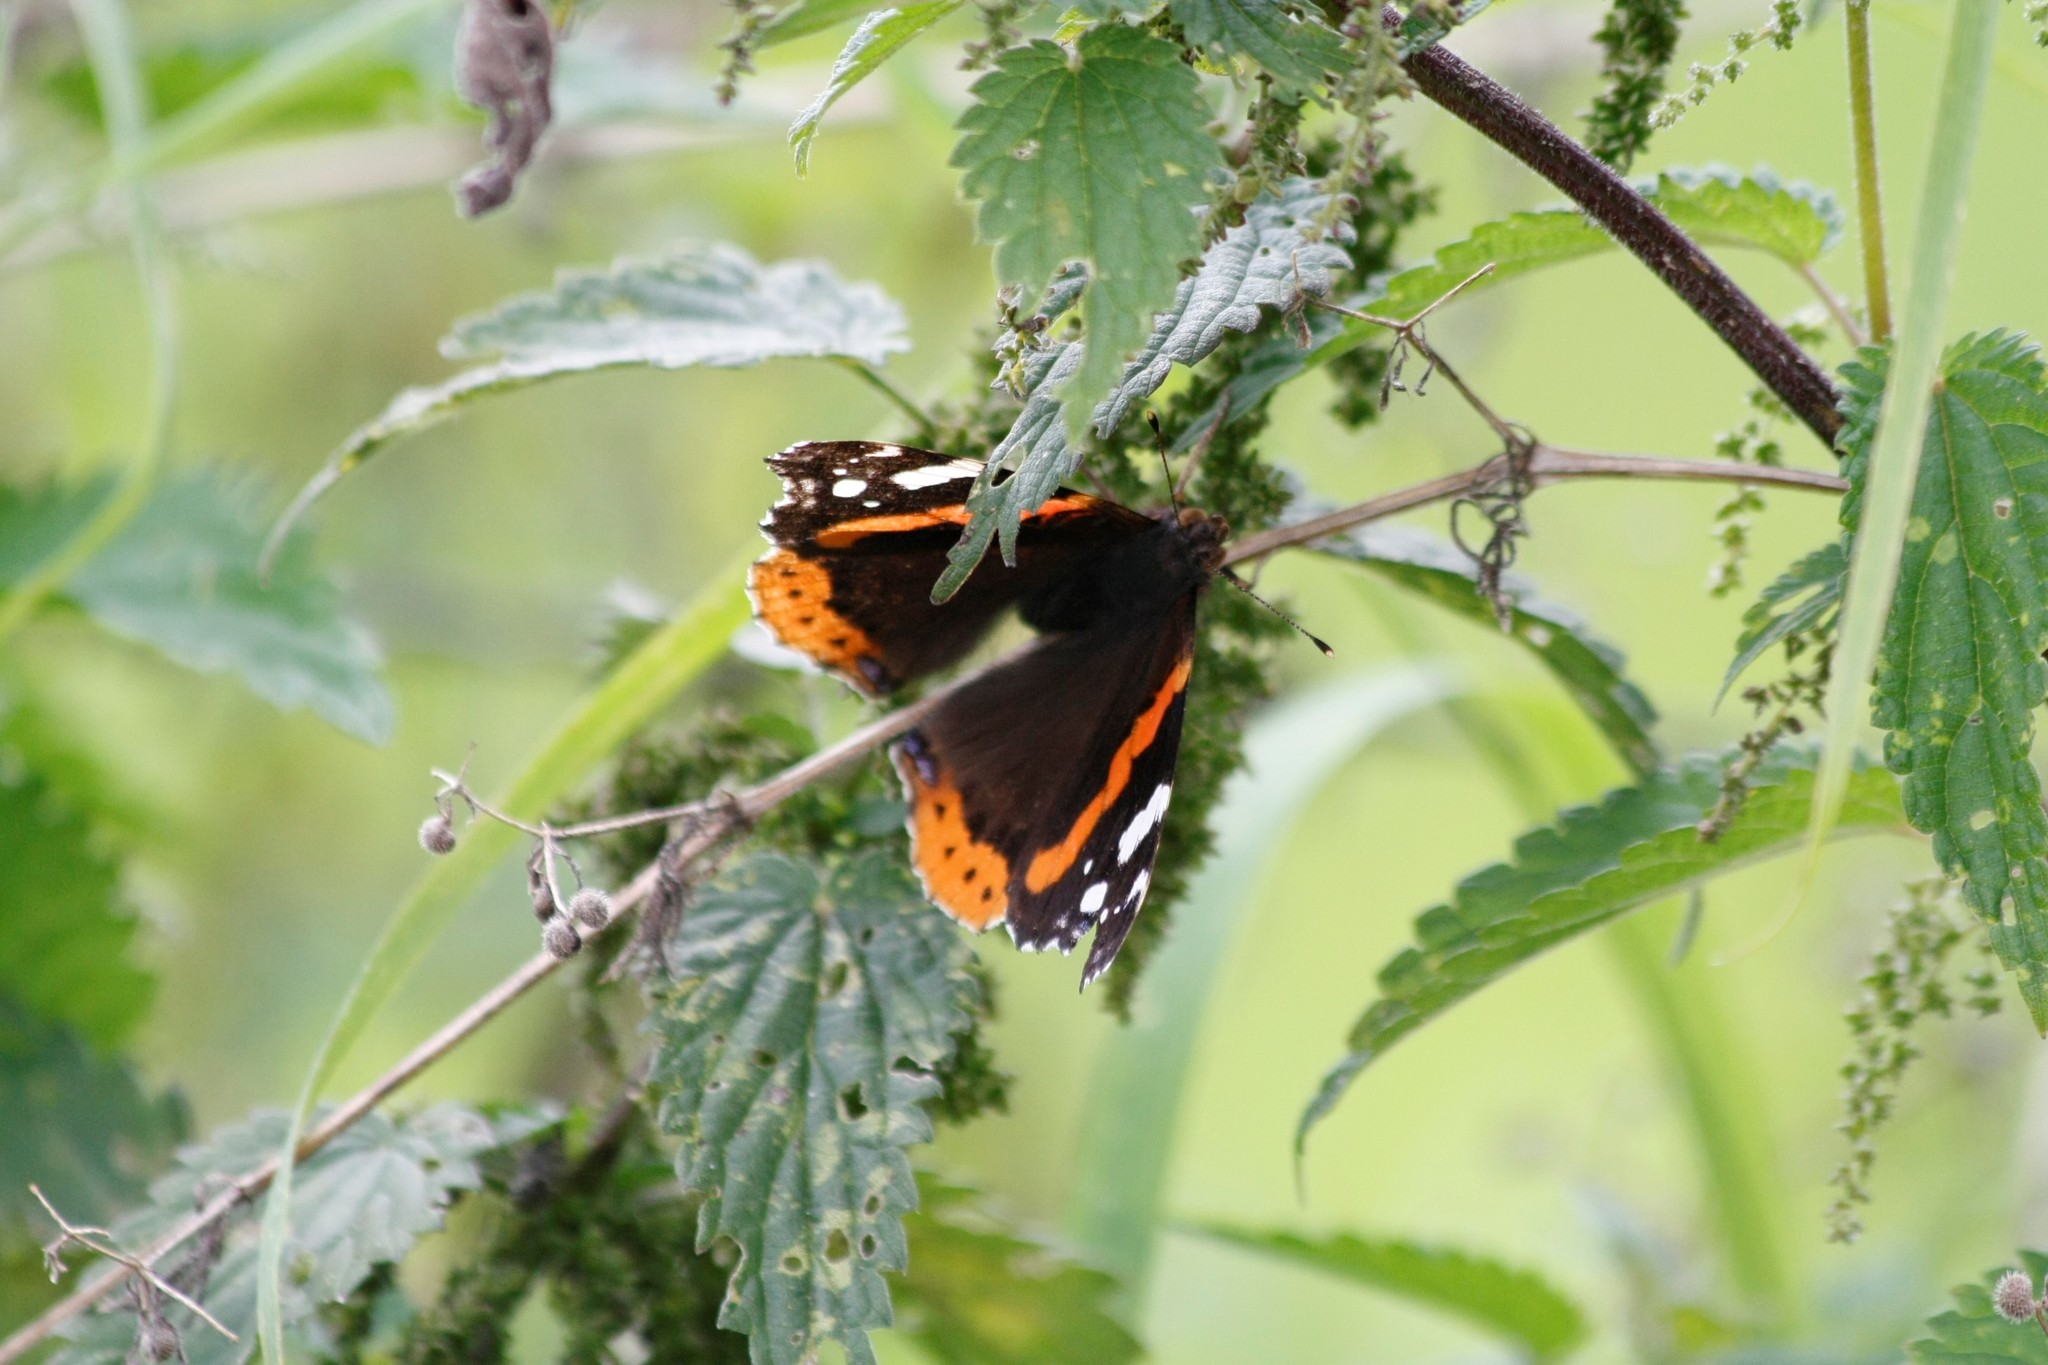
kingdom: Animalia
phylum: Arthropoda
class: Insecta
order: Lepidoptera
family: Nymphalidae
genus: Vanessa
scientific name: Vanessa atalanta
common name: Red admiral
